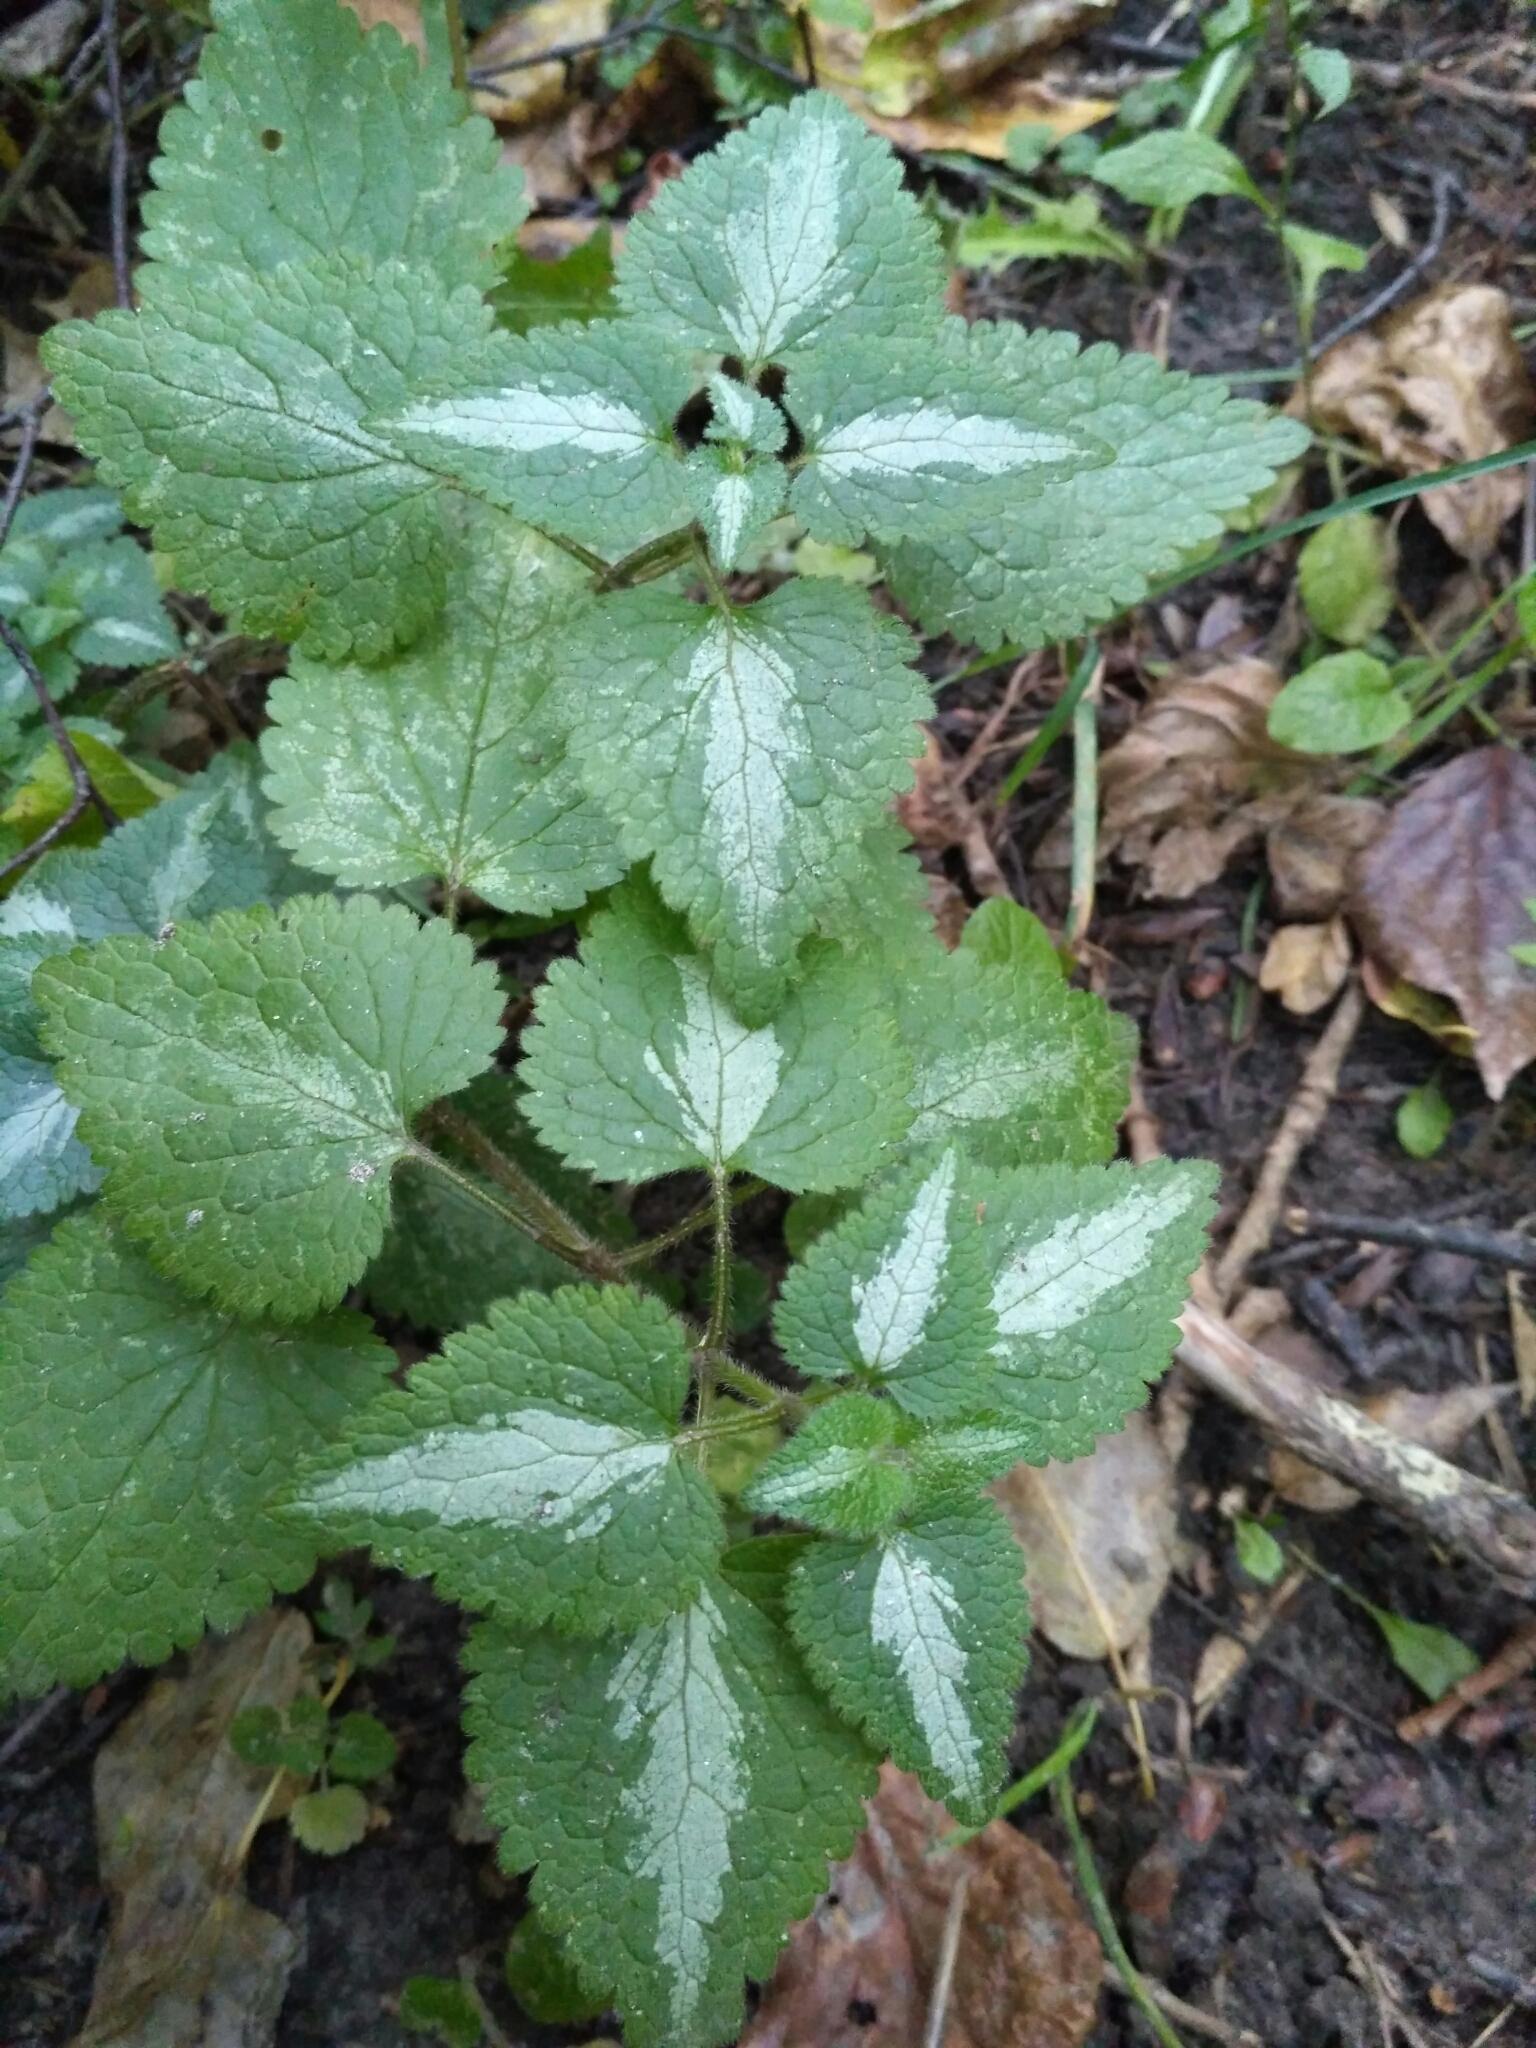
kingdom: Plantae
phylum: Tracheophyta
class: Magnoliopsida
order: Lamiales
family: Lamiaceae
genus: Lamium
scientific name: Lamium maculatum
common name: Spotted dead-nettle
